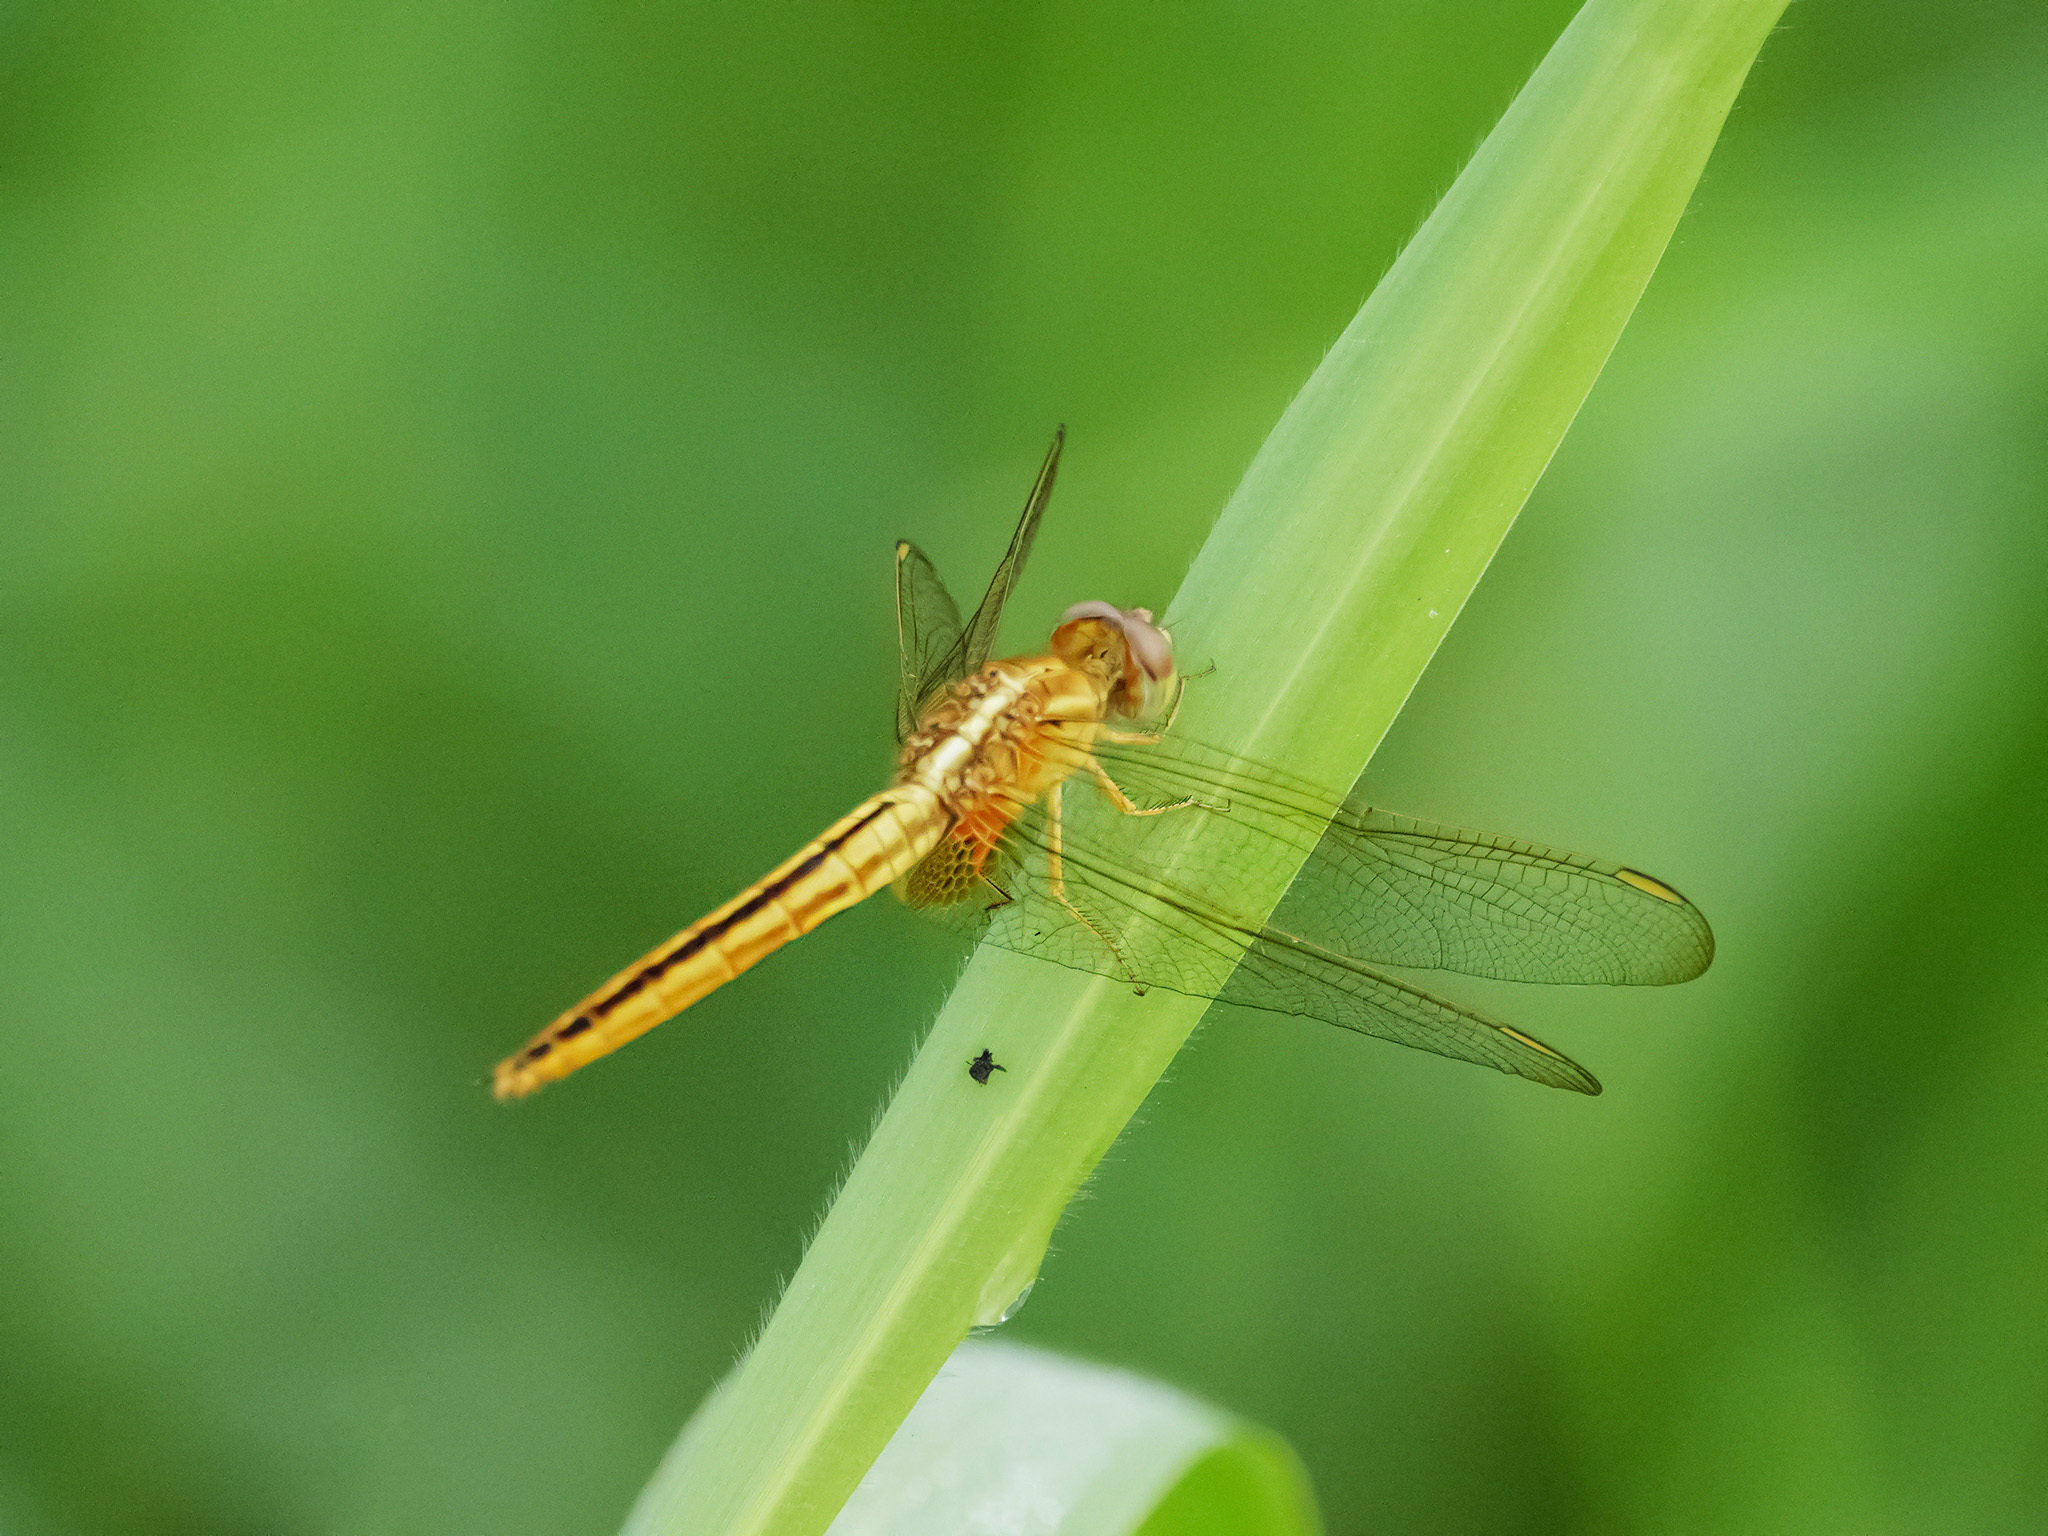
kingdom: Animalia
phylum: Arthropoda
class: Insecta
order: Odonata
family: Libellulidae
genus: Crocothemis
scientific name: Crocothemis servilia
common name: Scarlet skimmer
